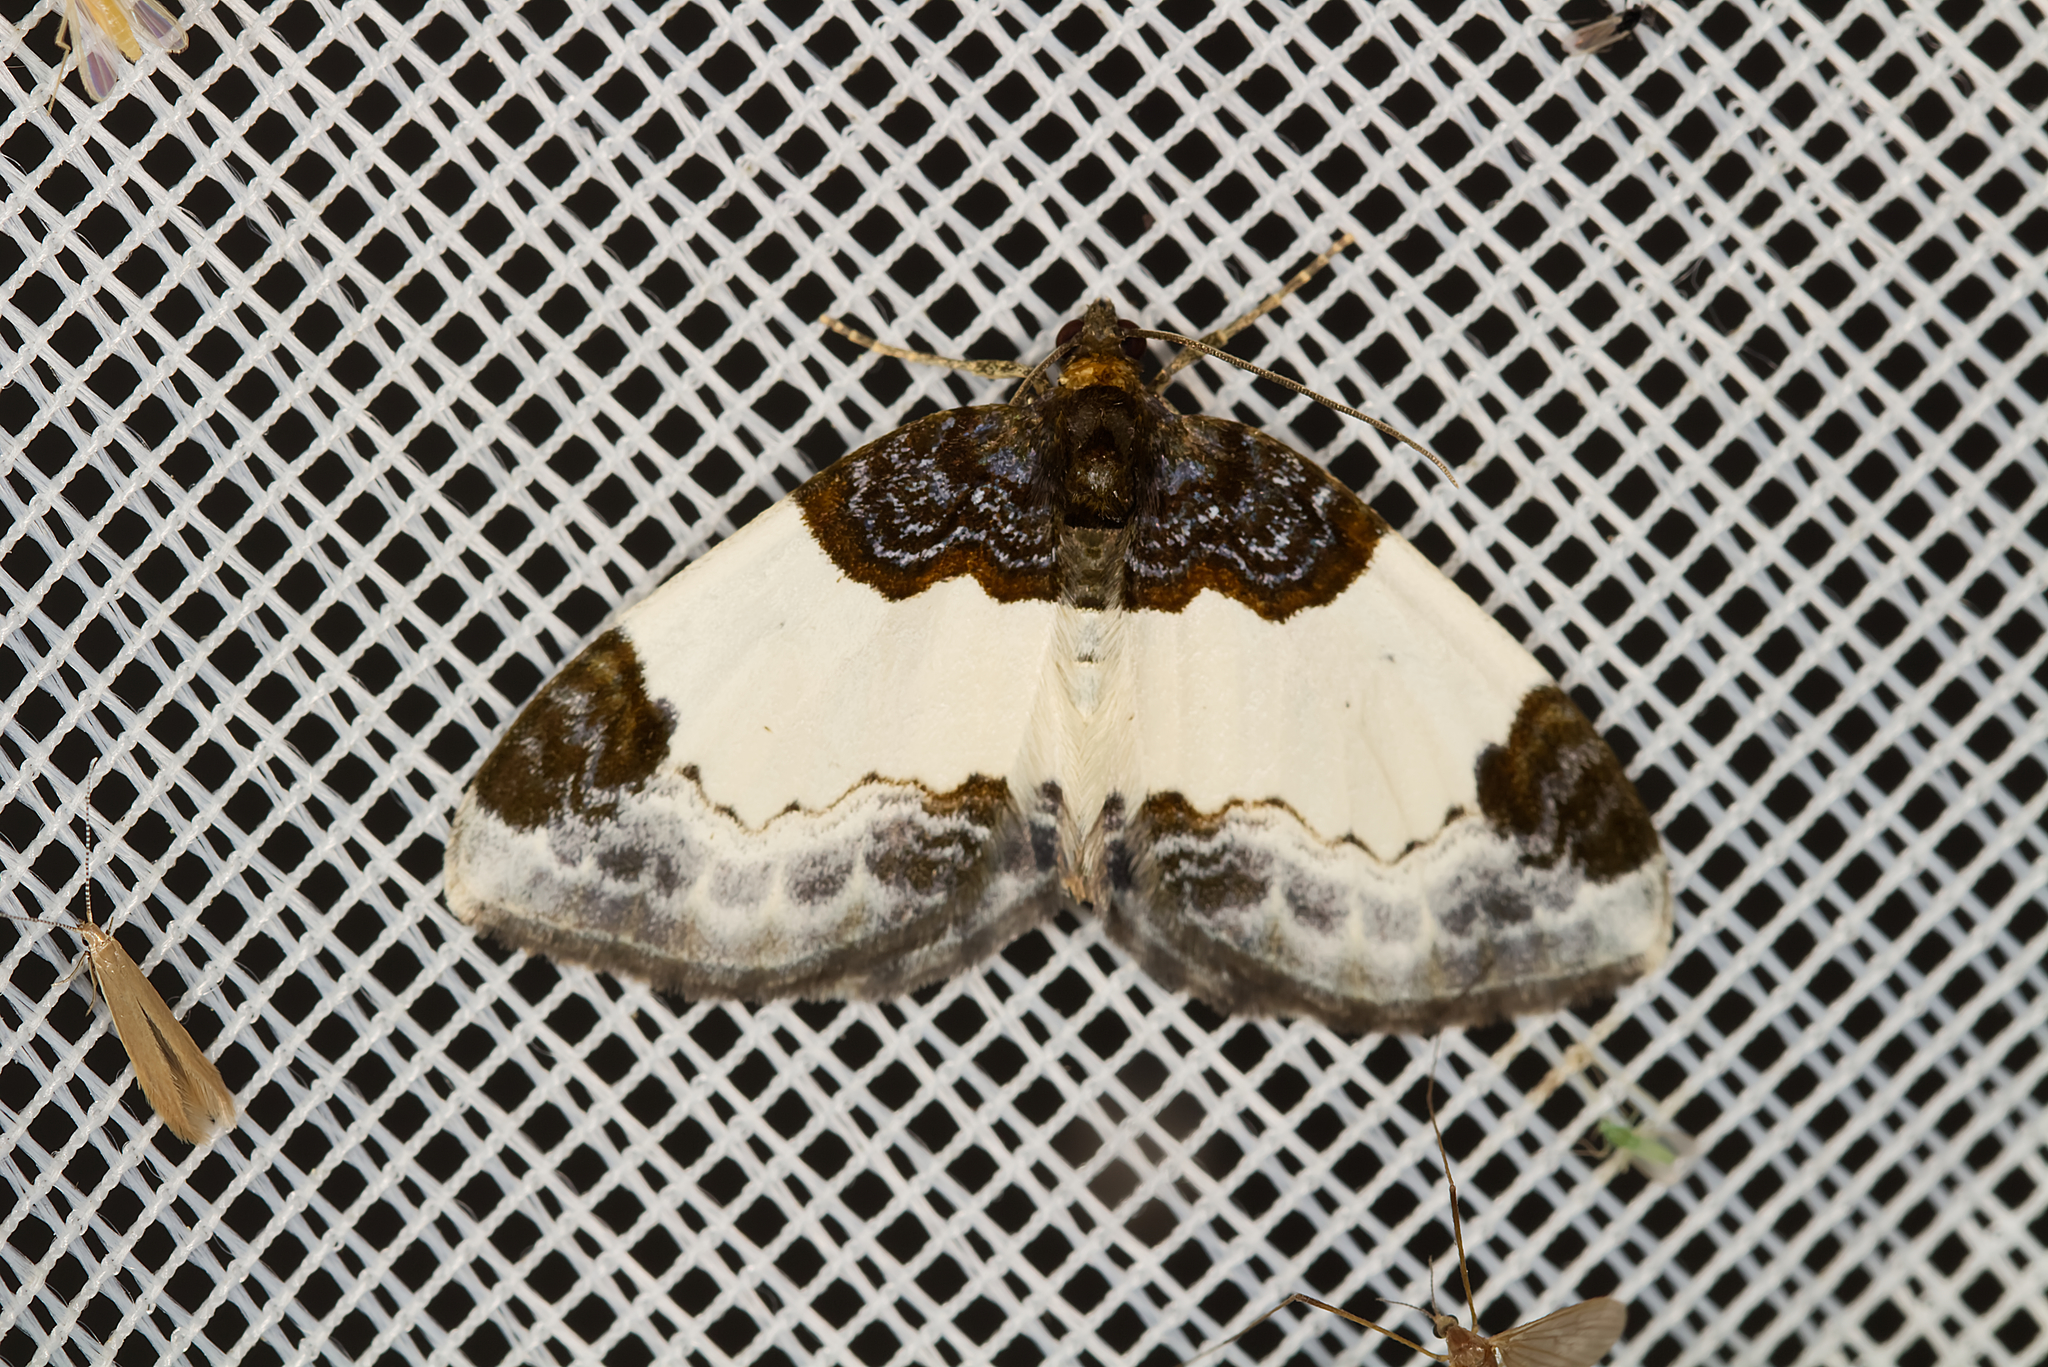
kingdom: Animalia
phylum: Arthropoda
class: Insecta
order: Lepidoptera
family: Geometridae
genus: Mesoleuca
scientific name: Mesoleuca albicillata
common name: Beautiful carpet
